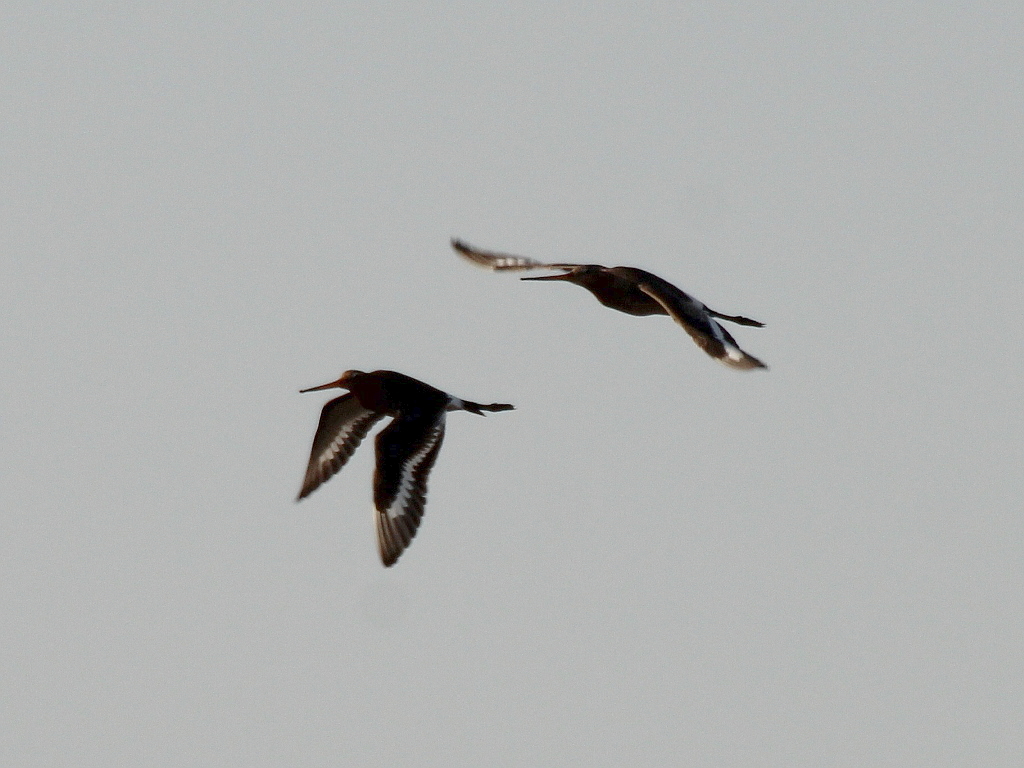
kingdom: Animalia
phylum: Chordata
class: Aves
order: Charadriiformes
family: Scolopacidae
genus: Limosa
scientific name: Limosa limosa
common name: Black-tailed godwit
